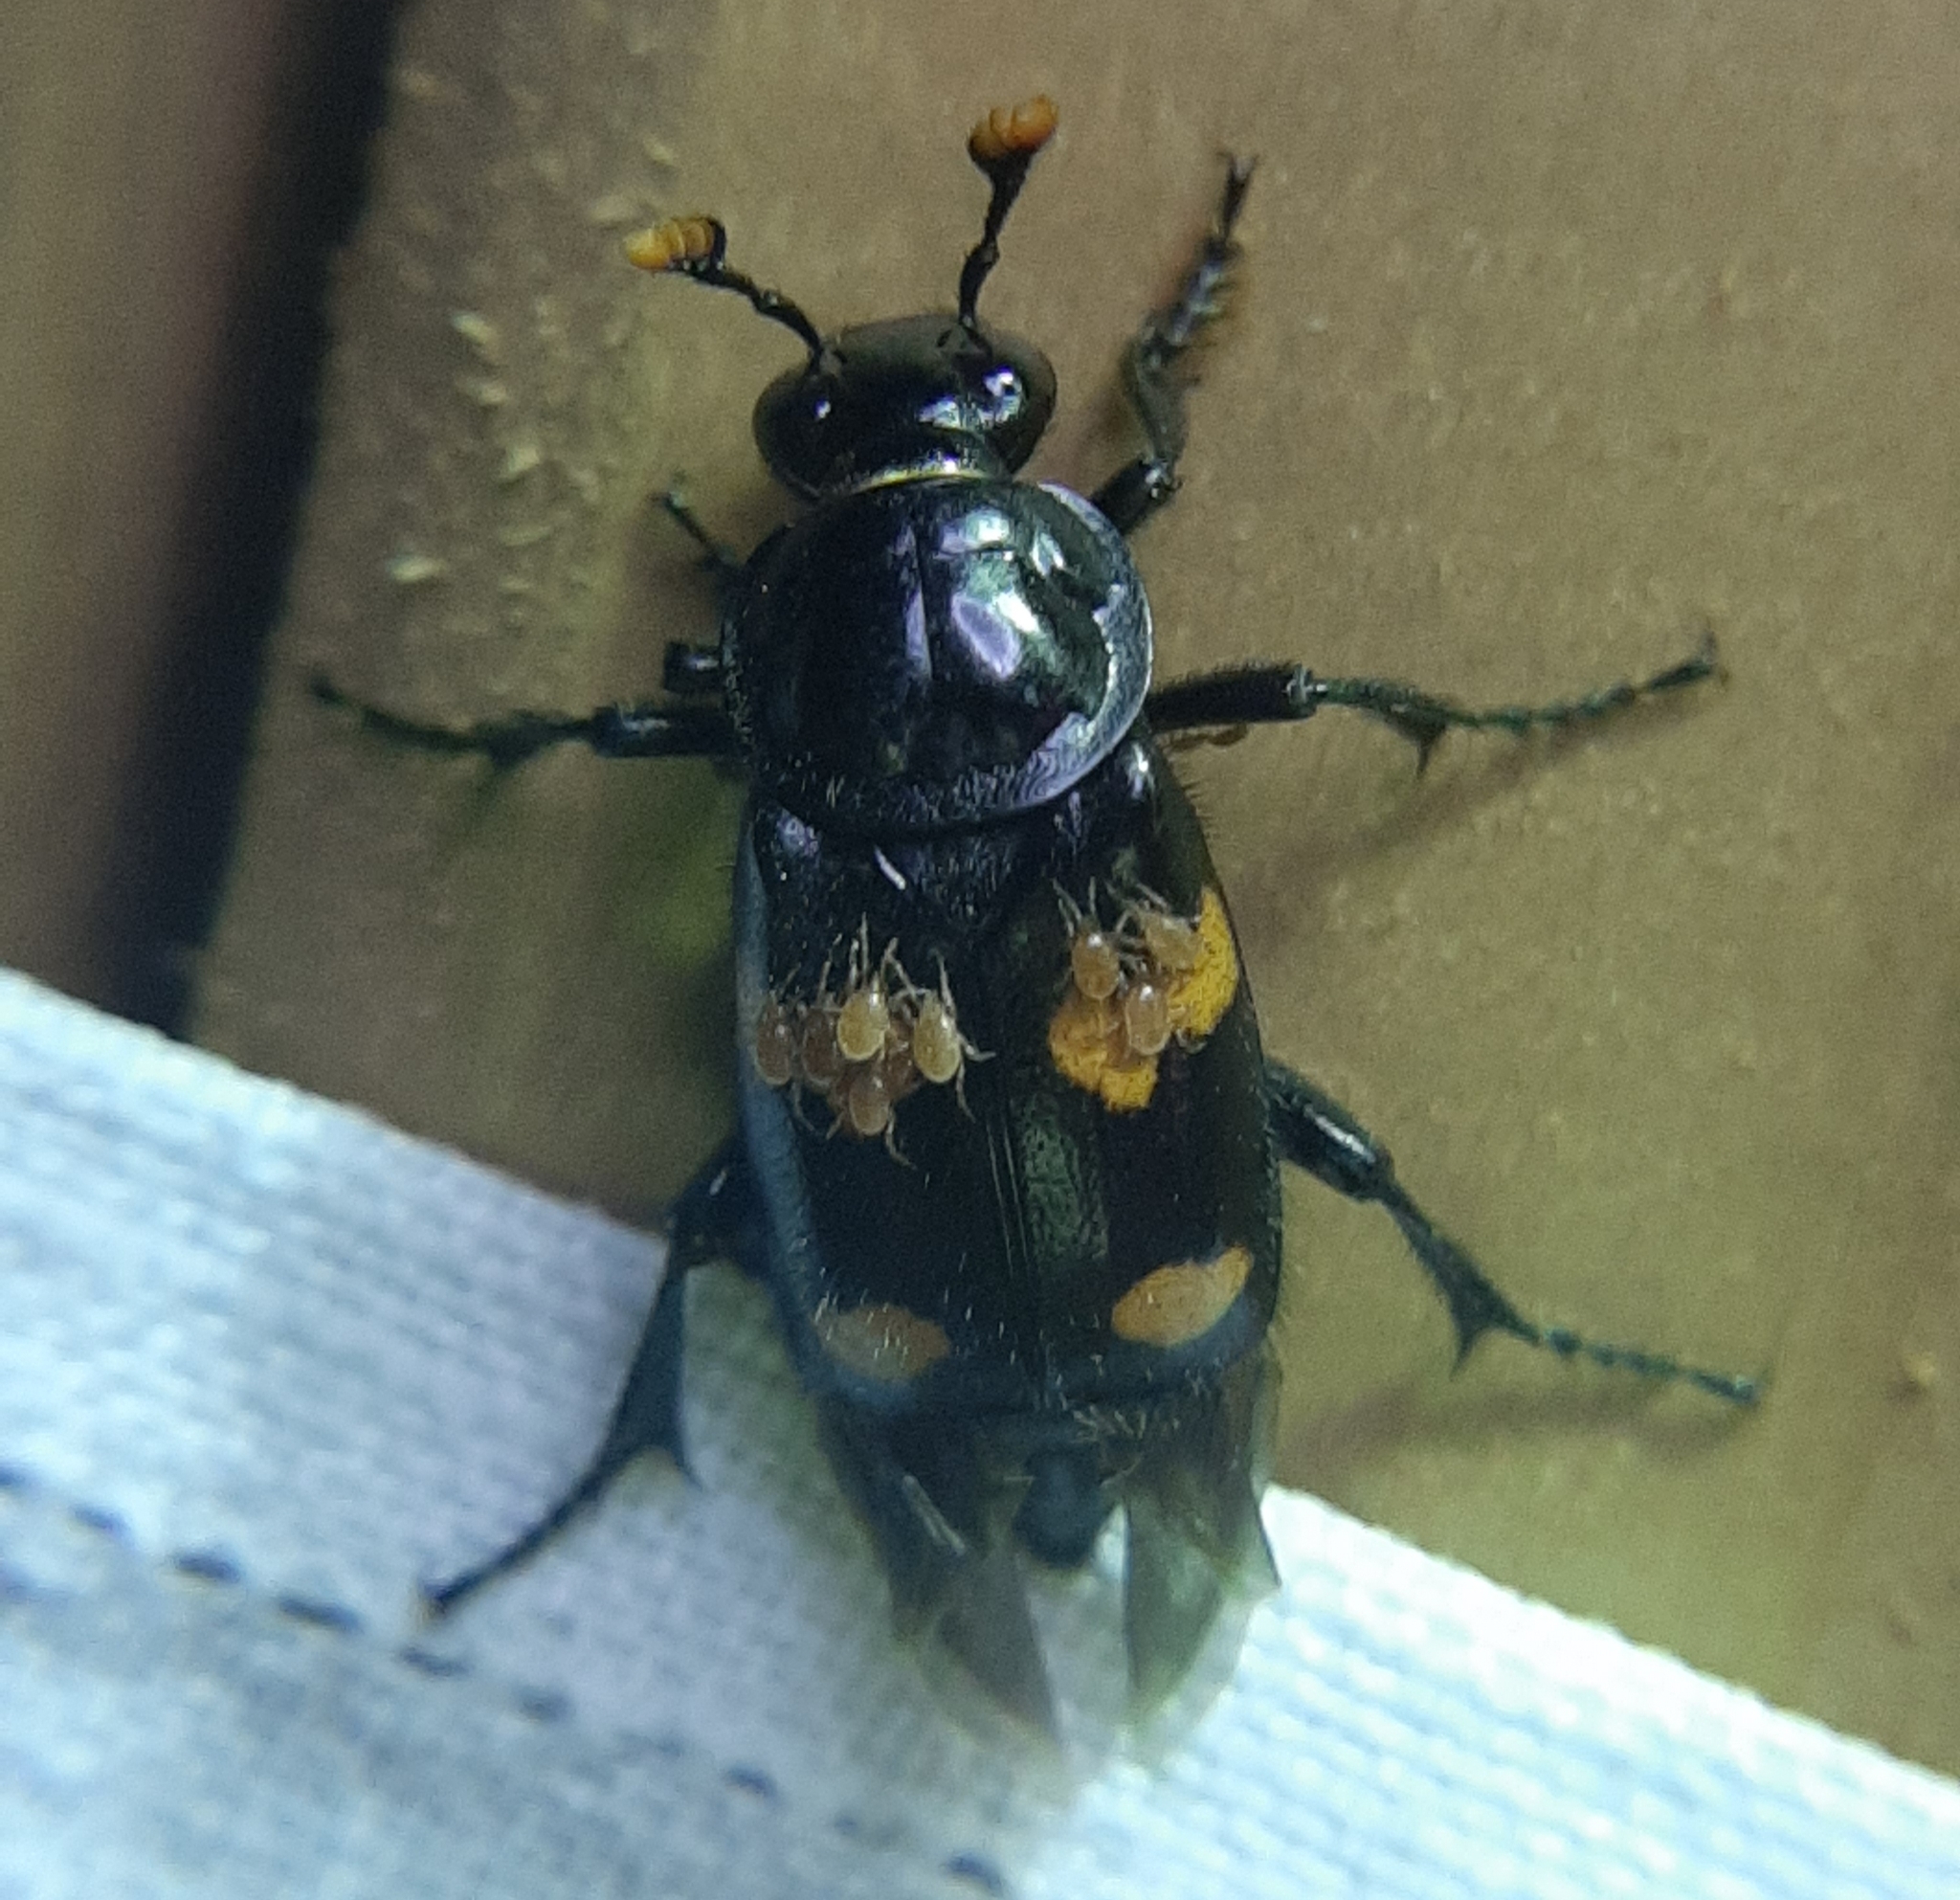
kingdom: Animalia
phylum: Arthropoda
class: Insecta
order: Coleoptera
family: Staphylinidae
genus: Nicrophorus
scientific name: Nicrophorus orbicollis
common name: Roundneck sexton beetle
